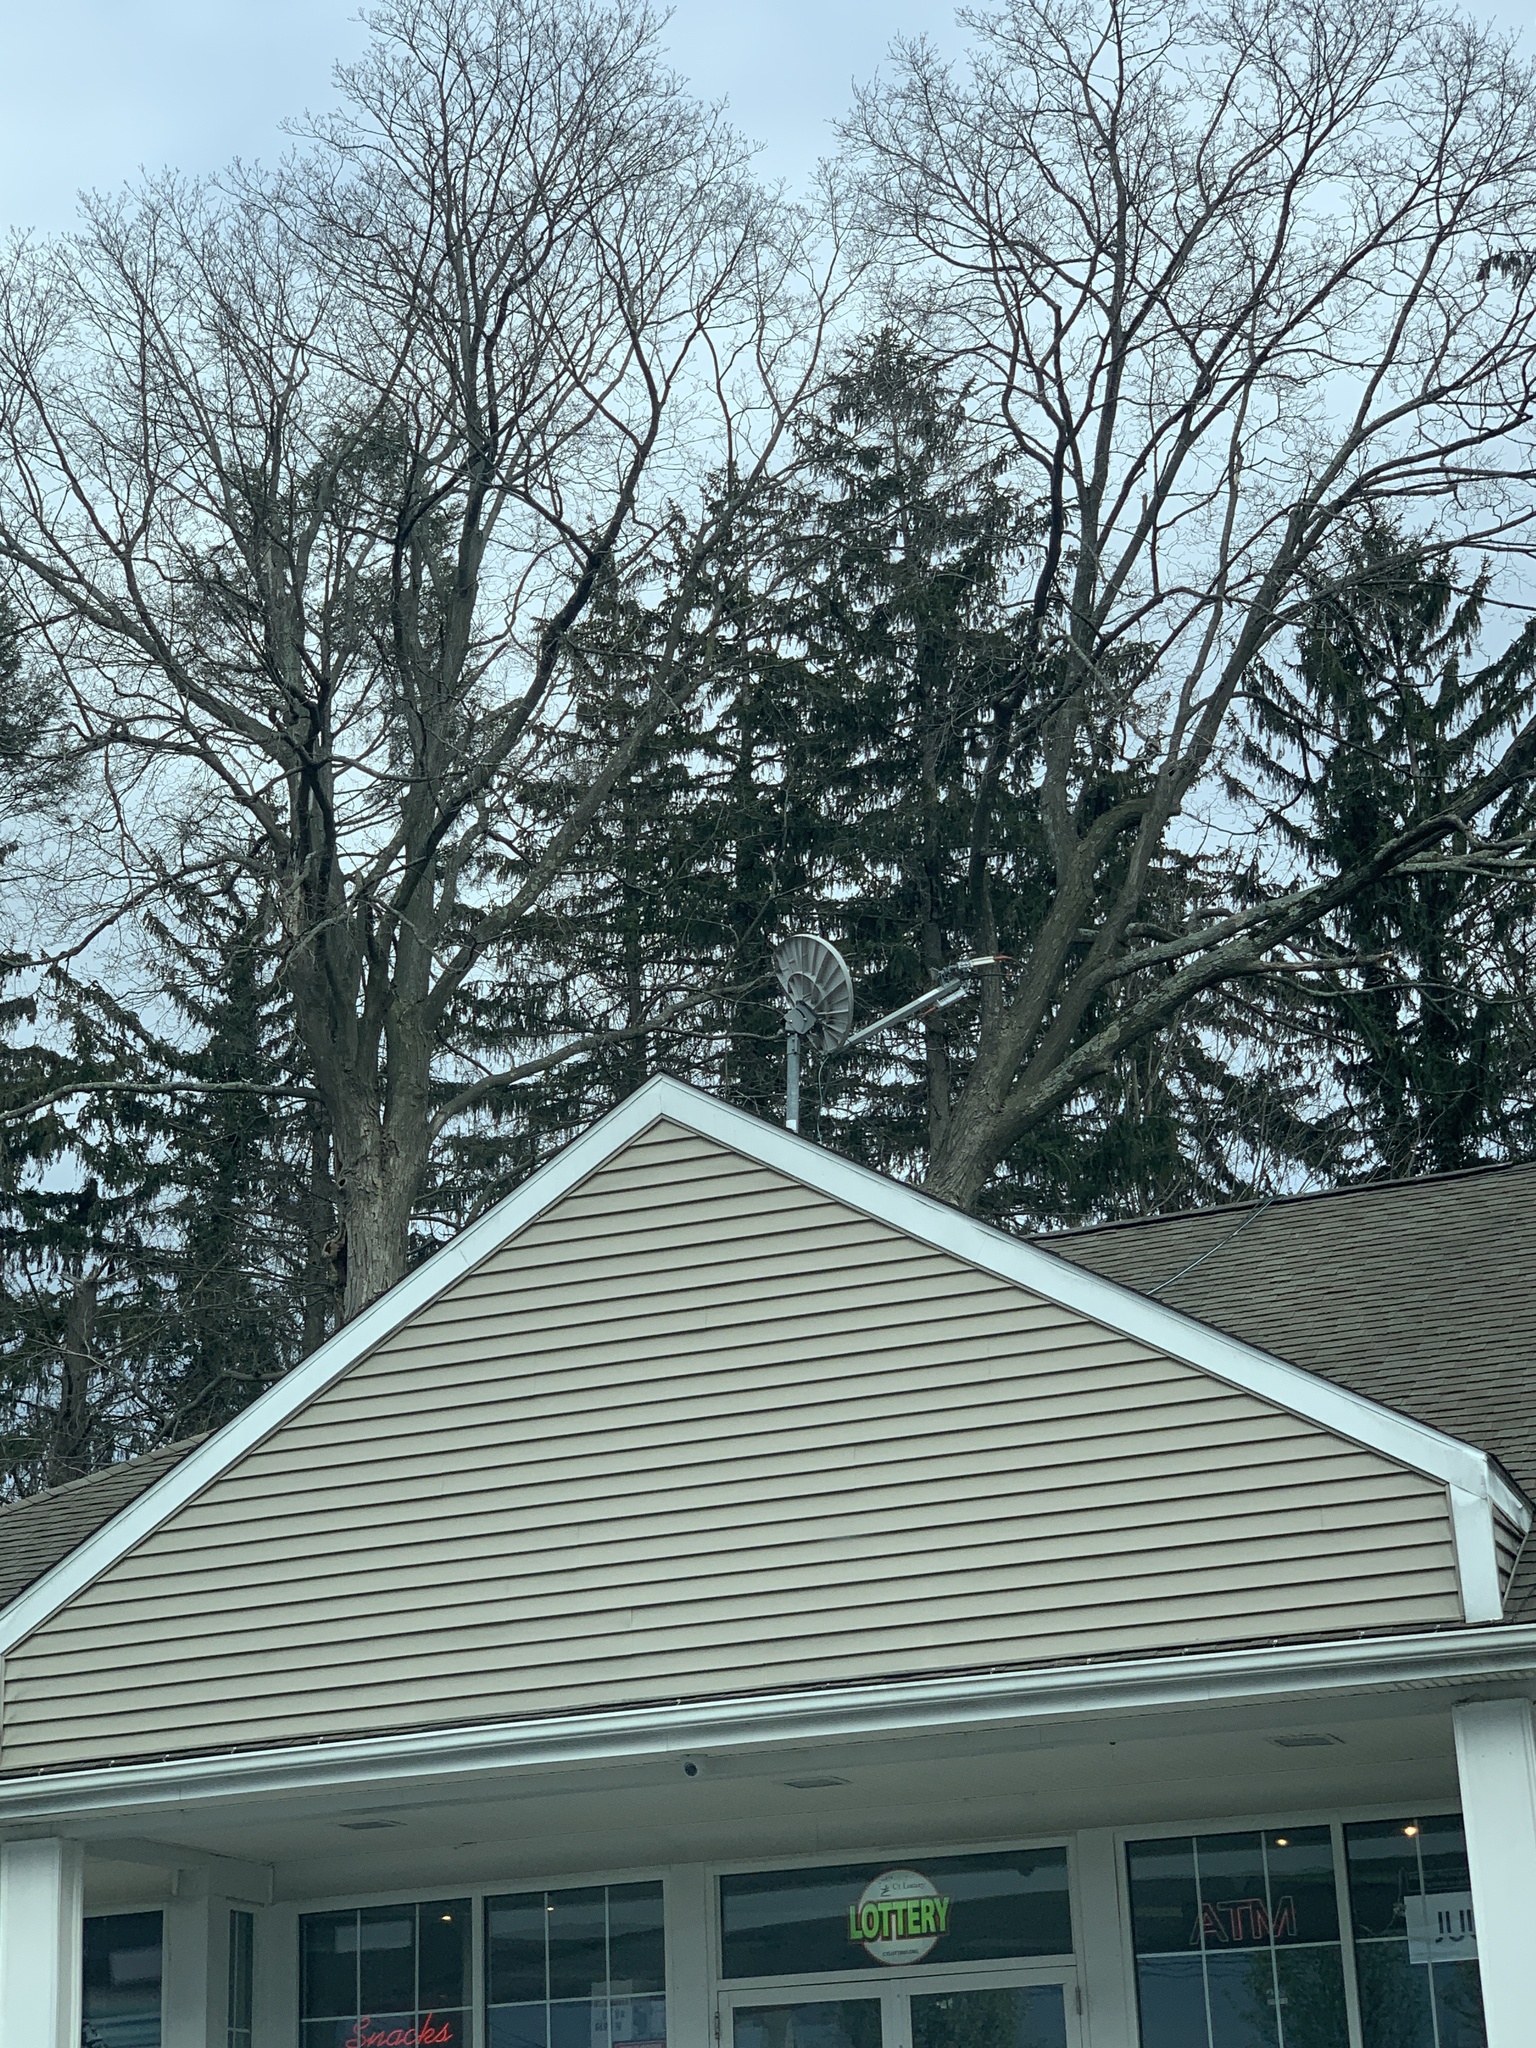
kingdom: Plantae
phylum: Tracheophyta
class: Pinopsida
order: Pinales
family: Pinaceae
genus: Picea
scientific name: Picea abies
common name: Norway spruce
